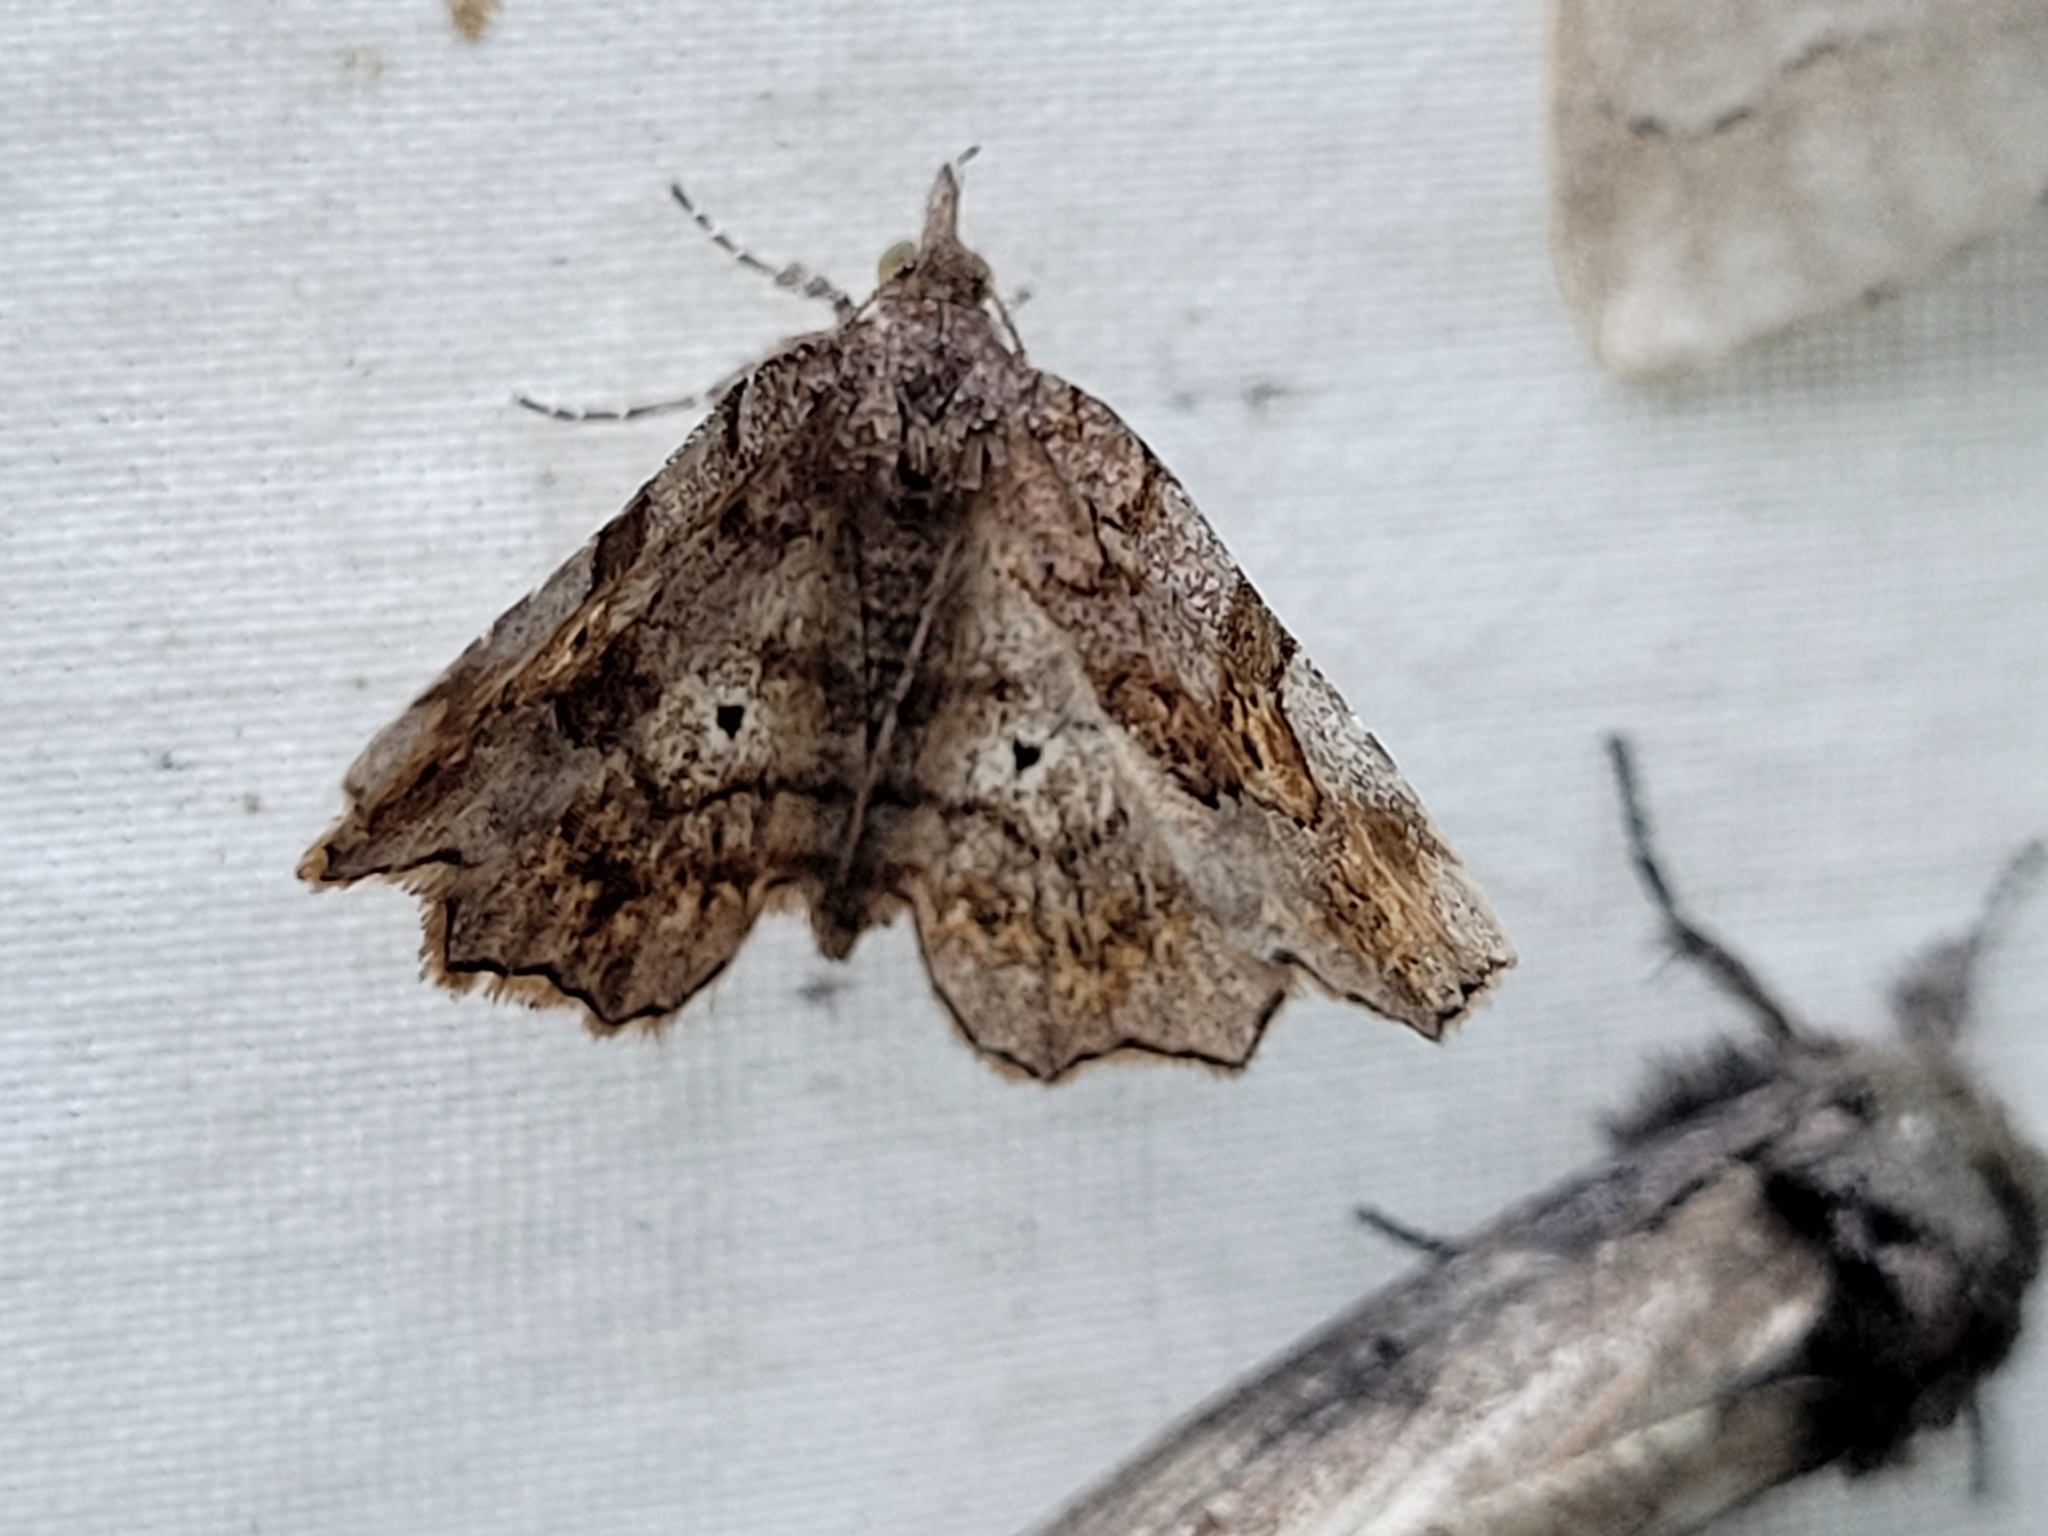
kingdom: Animalia
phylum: Arthropoda
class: Insecta
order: Lepidoptera
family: Erebidae
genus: Pangrapta
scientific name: Pangrapta decoralis
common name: Decorated owlet
